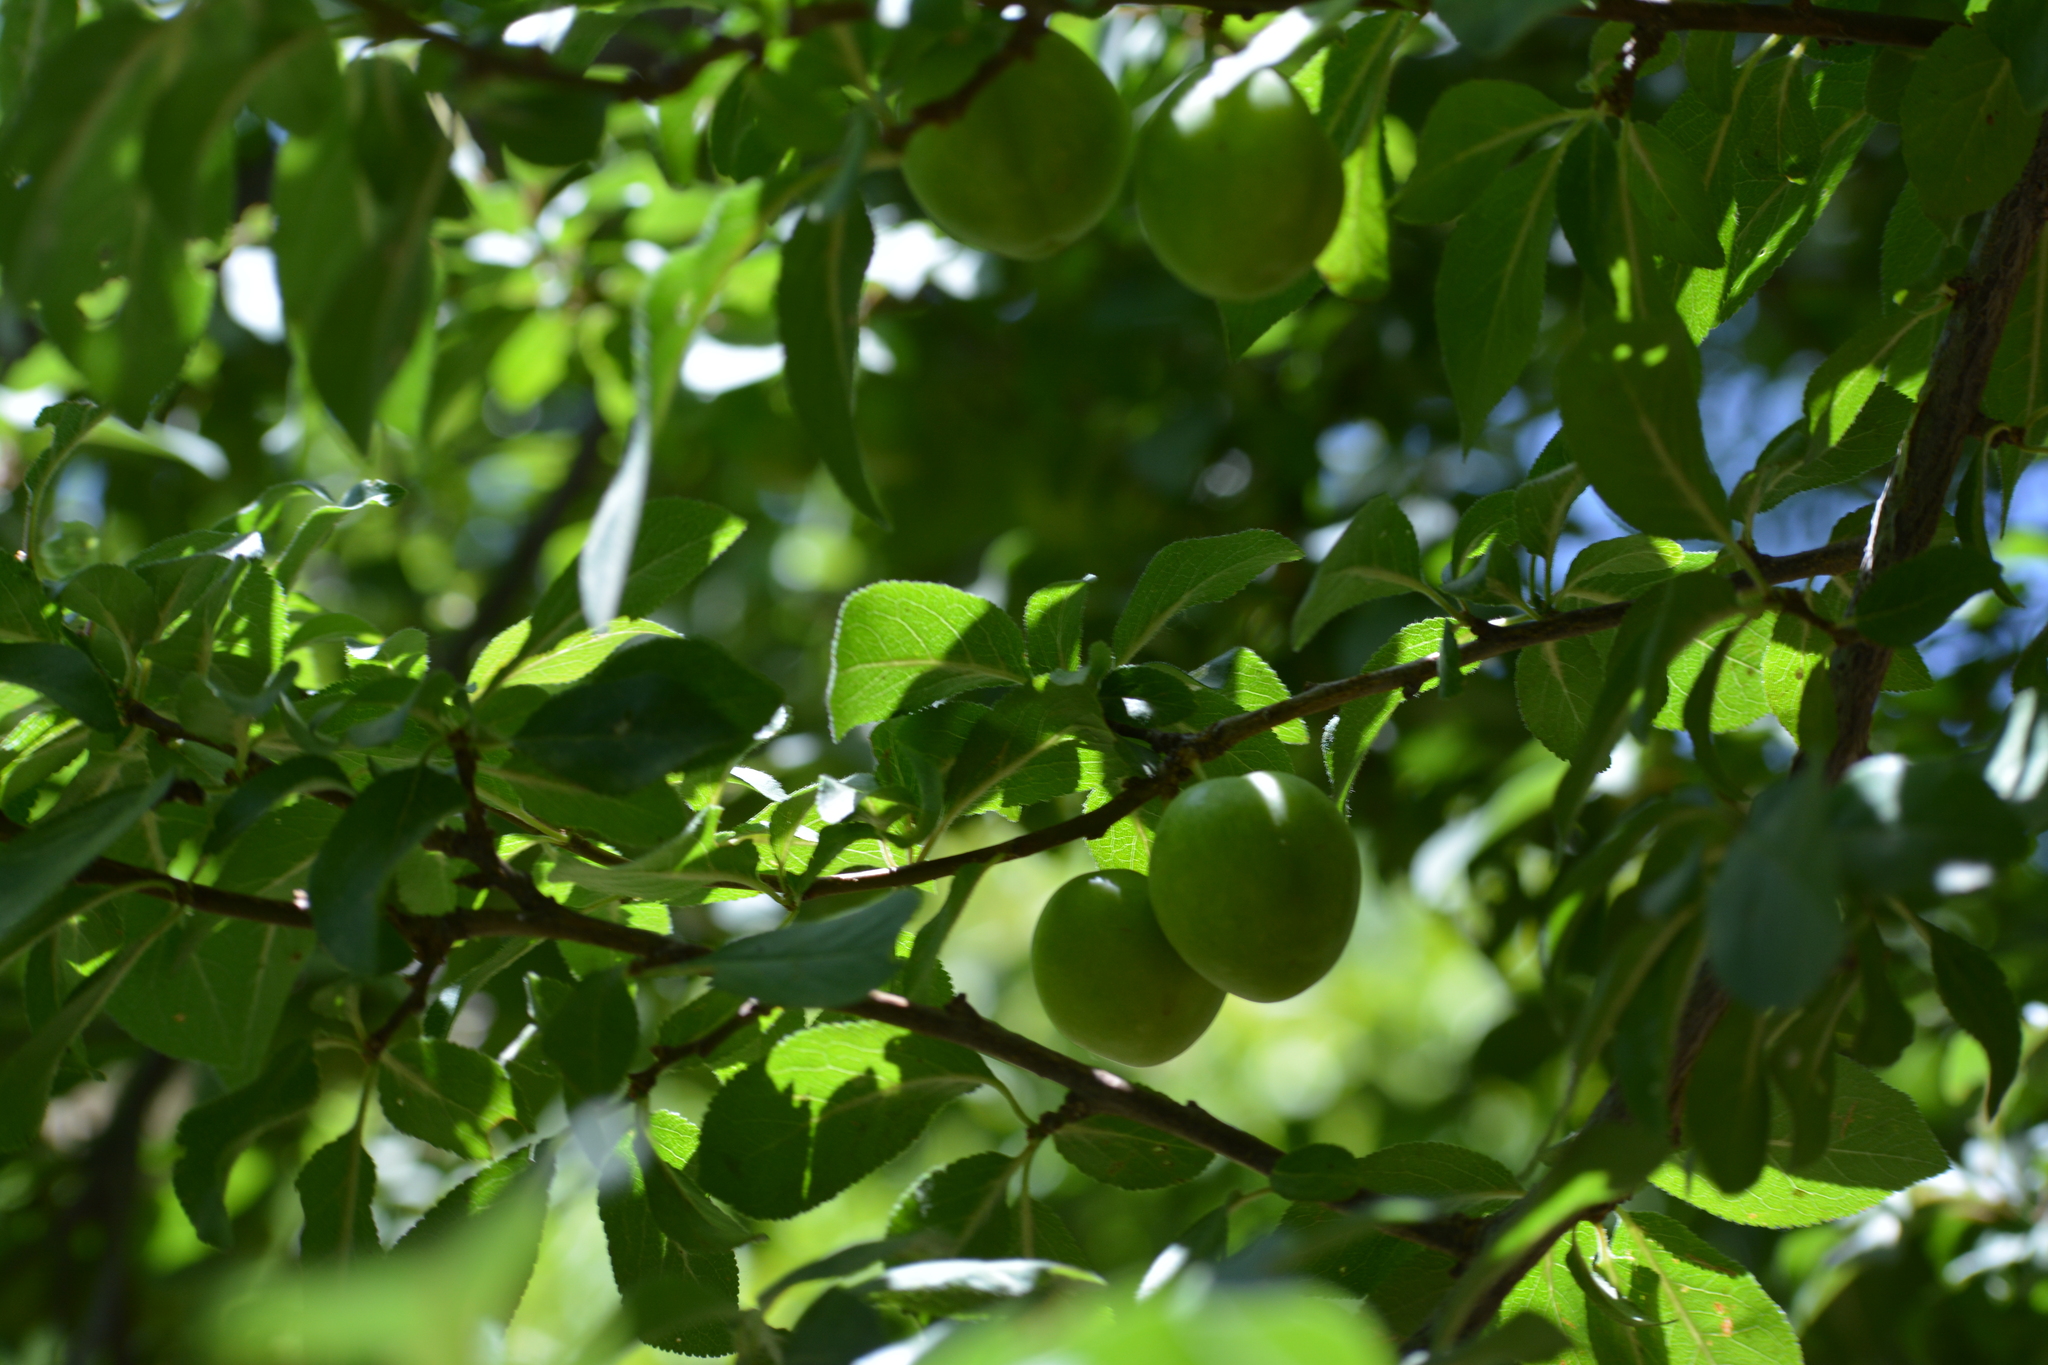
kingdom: Plantae
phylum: Tracheophyta
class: Magnoliopsida
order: Rosales
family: Rosaceae
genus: Prunus
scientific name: Prunus domestica
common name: Wild plum
